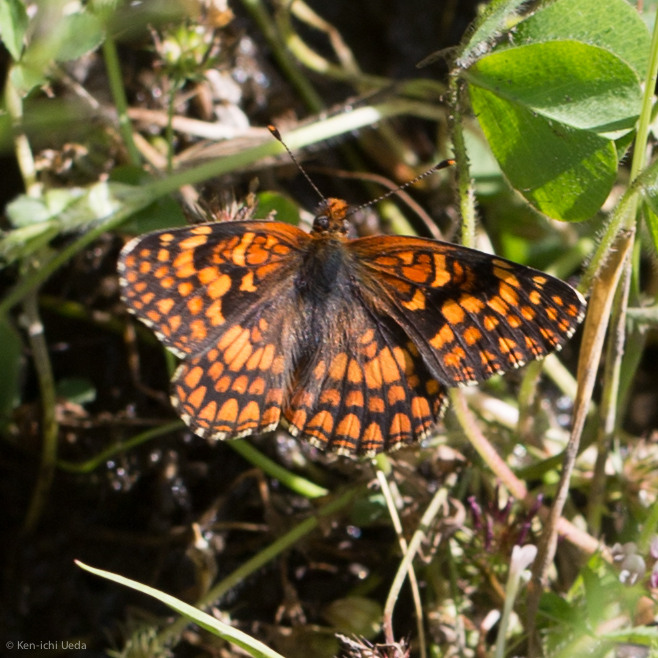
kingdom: Animalia
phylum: Arthropoda
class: Insecta
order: Lepidoptera
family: Nymphalidae
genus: Chlosyne
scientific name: Chlosyne palla
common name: Northern checkerspot
